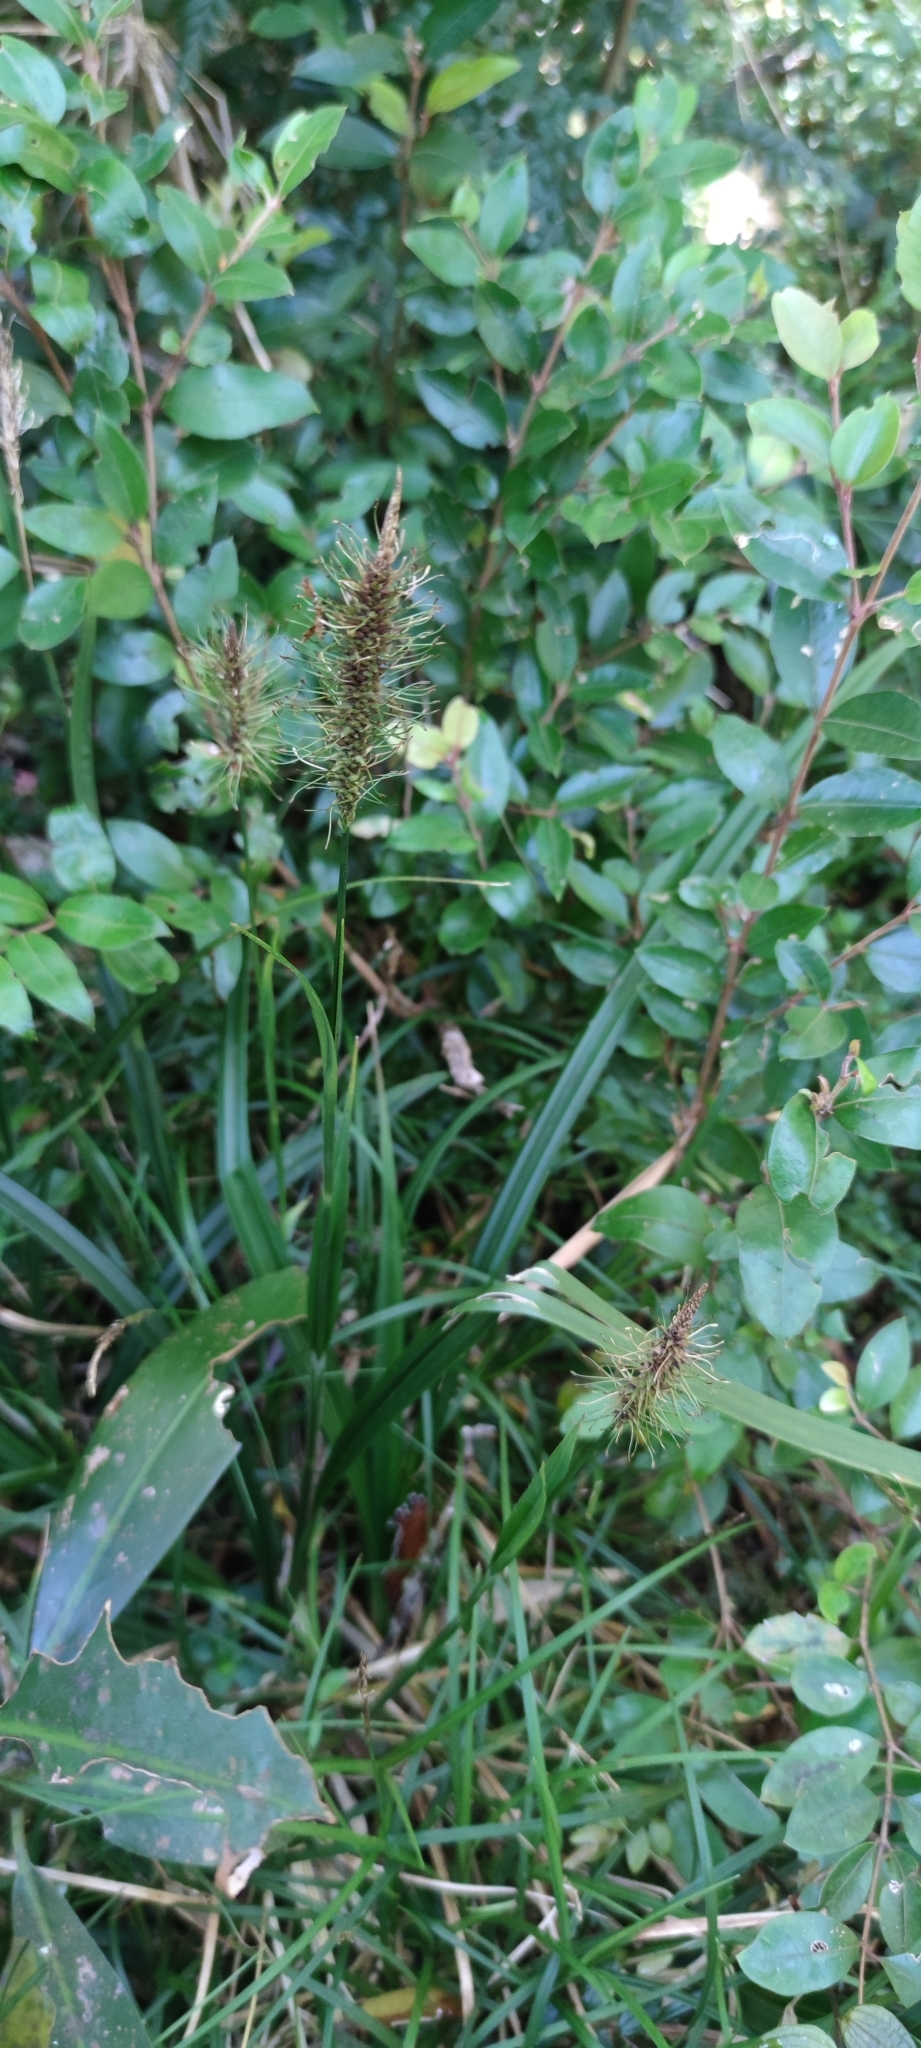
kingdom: Plantae
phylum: Tracheophyta
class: Liliopsida
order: Poales
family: Cyperaceae
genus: Carex
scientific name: Carex erinacea
